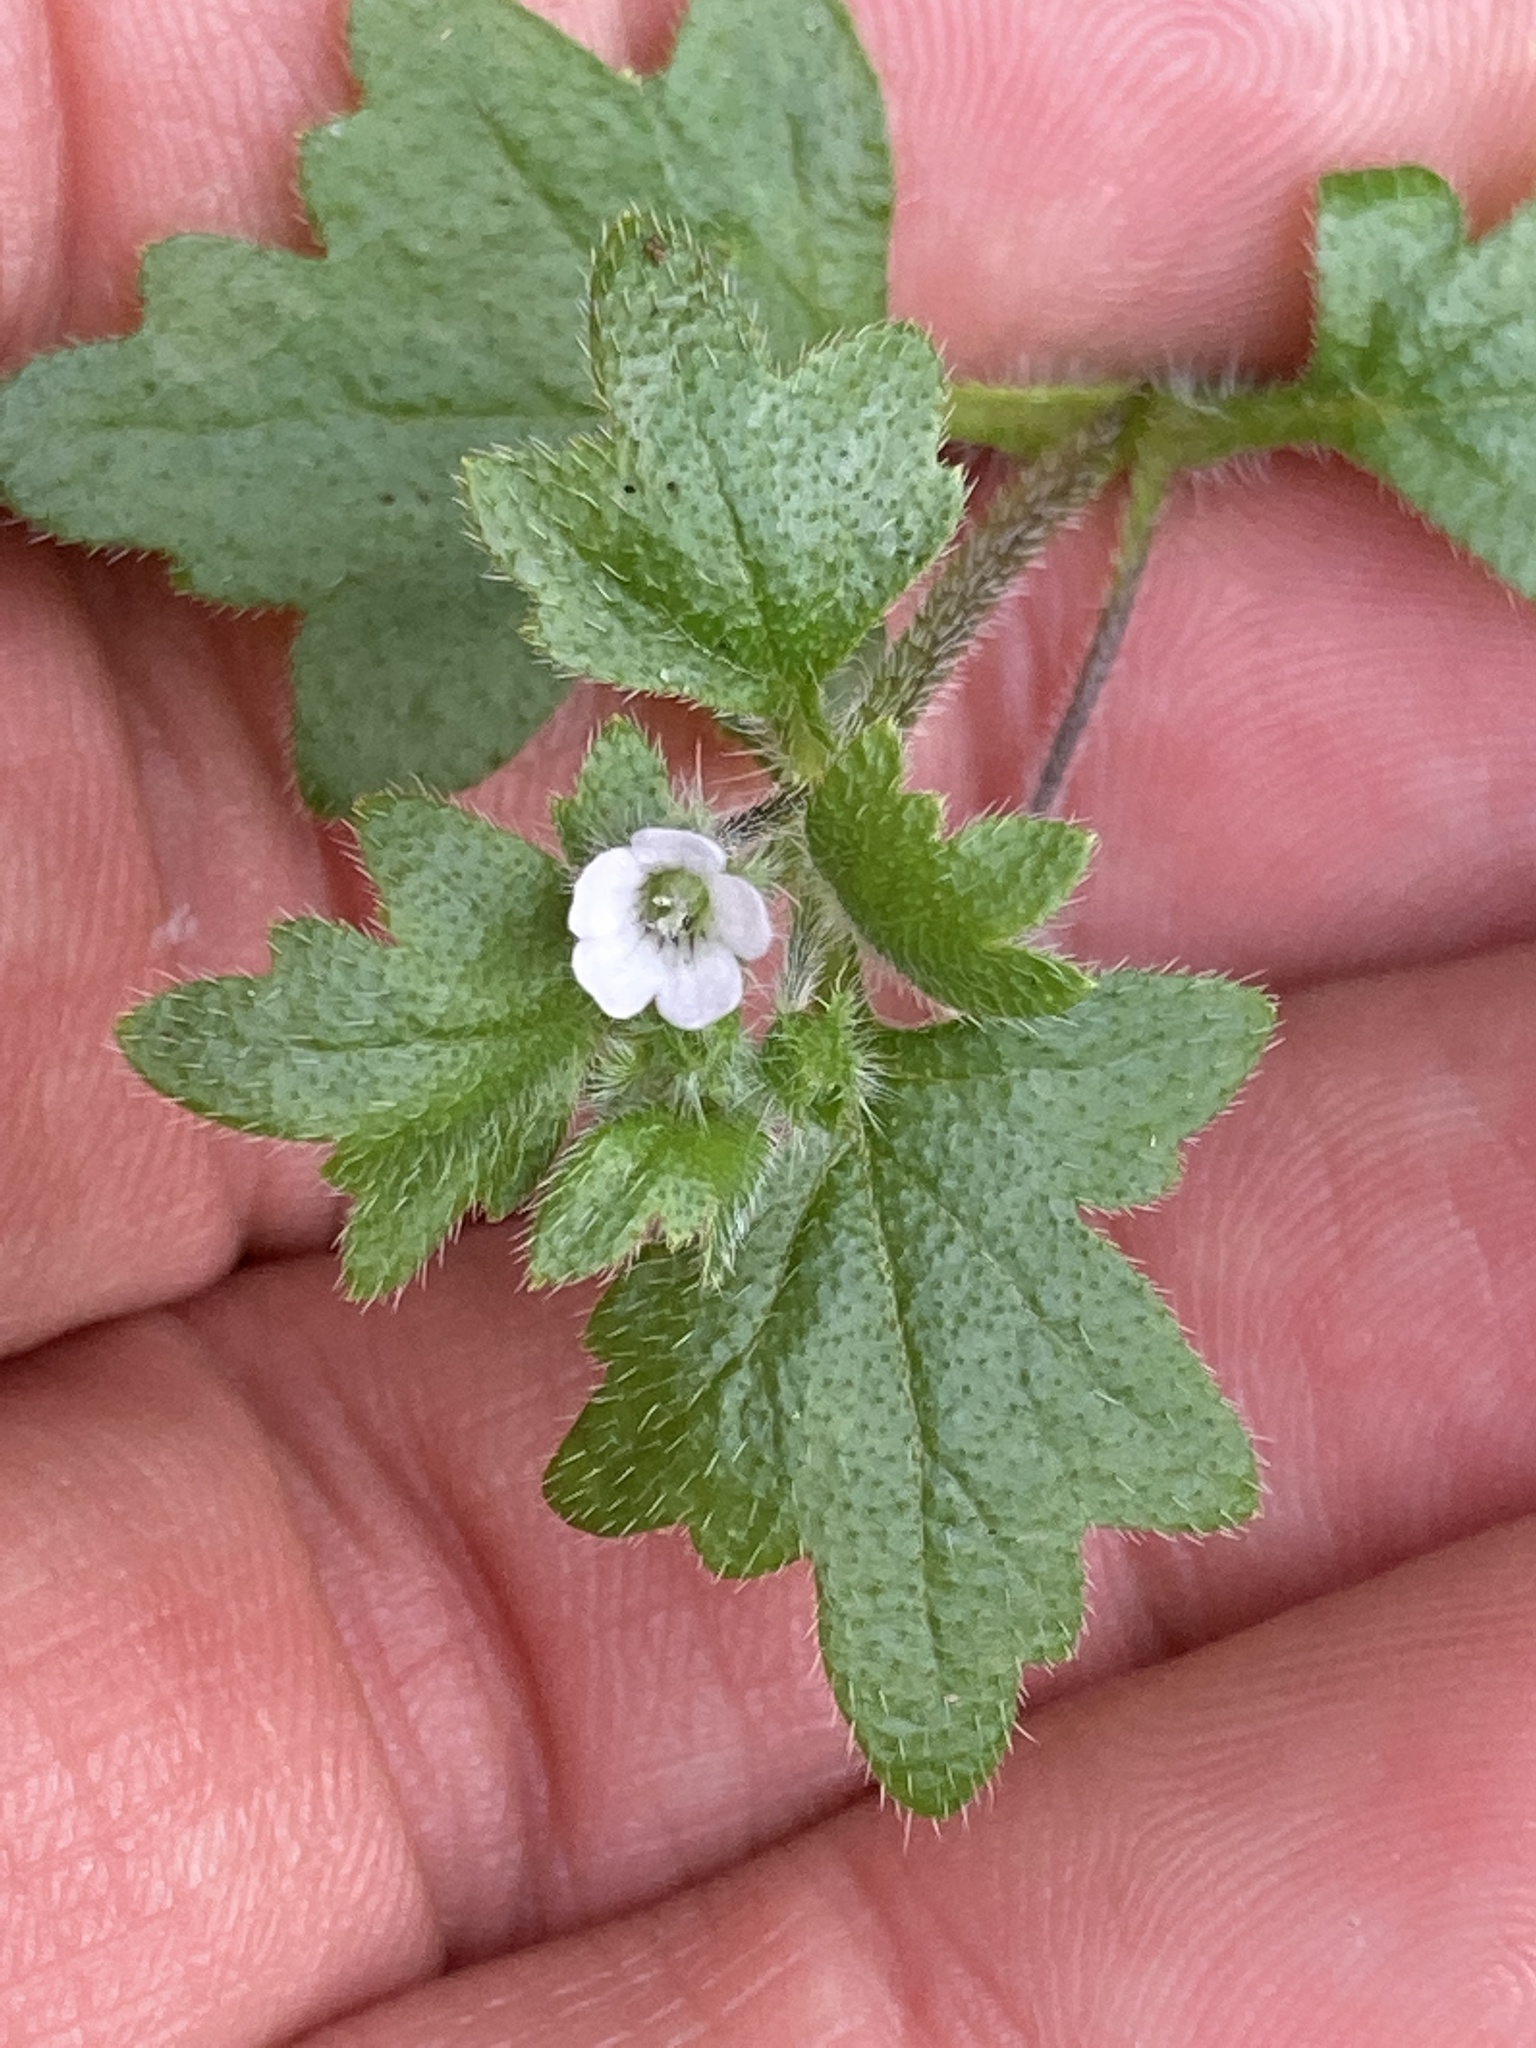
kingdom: Plantae
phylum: Tracheophyta
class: Magnoliopsida
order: Boraginales
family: Hydrophyllaceae
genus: Nemophila
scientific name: Nemophila parviflora
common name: Small-flowered baby-blue-eyes
